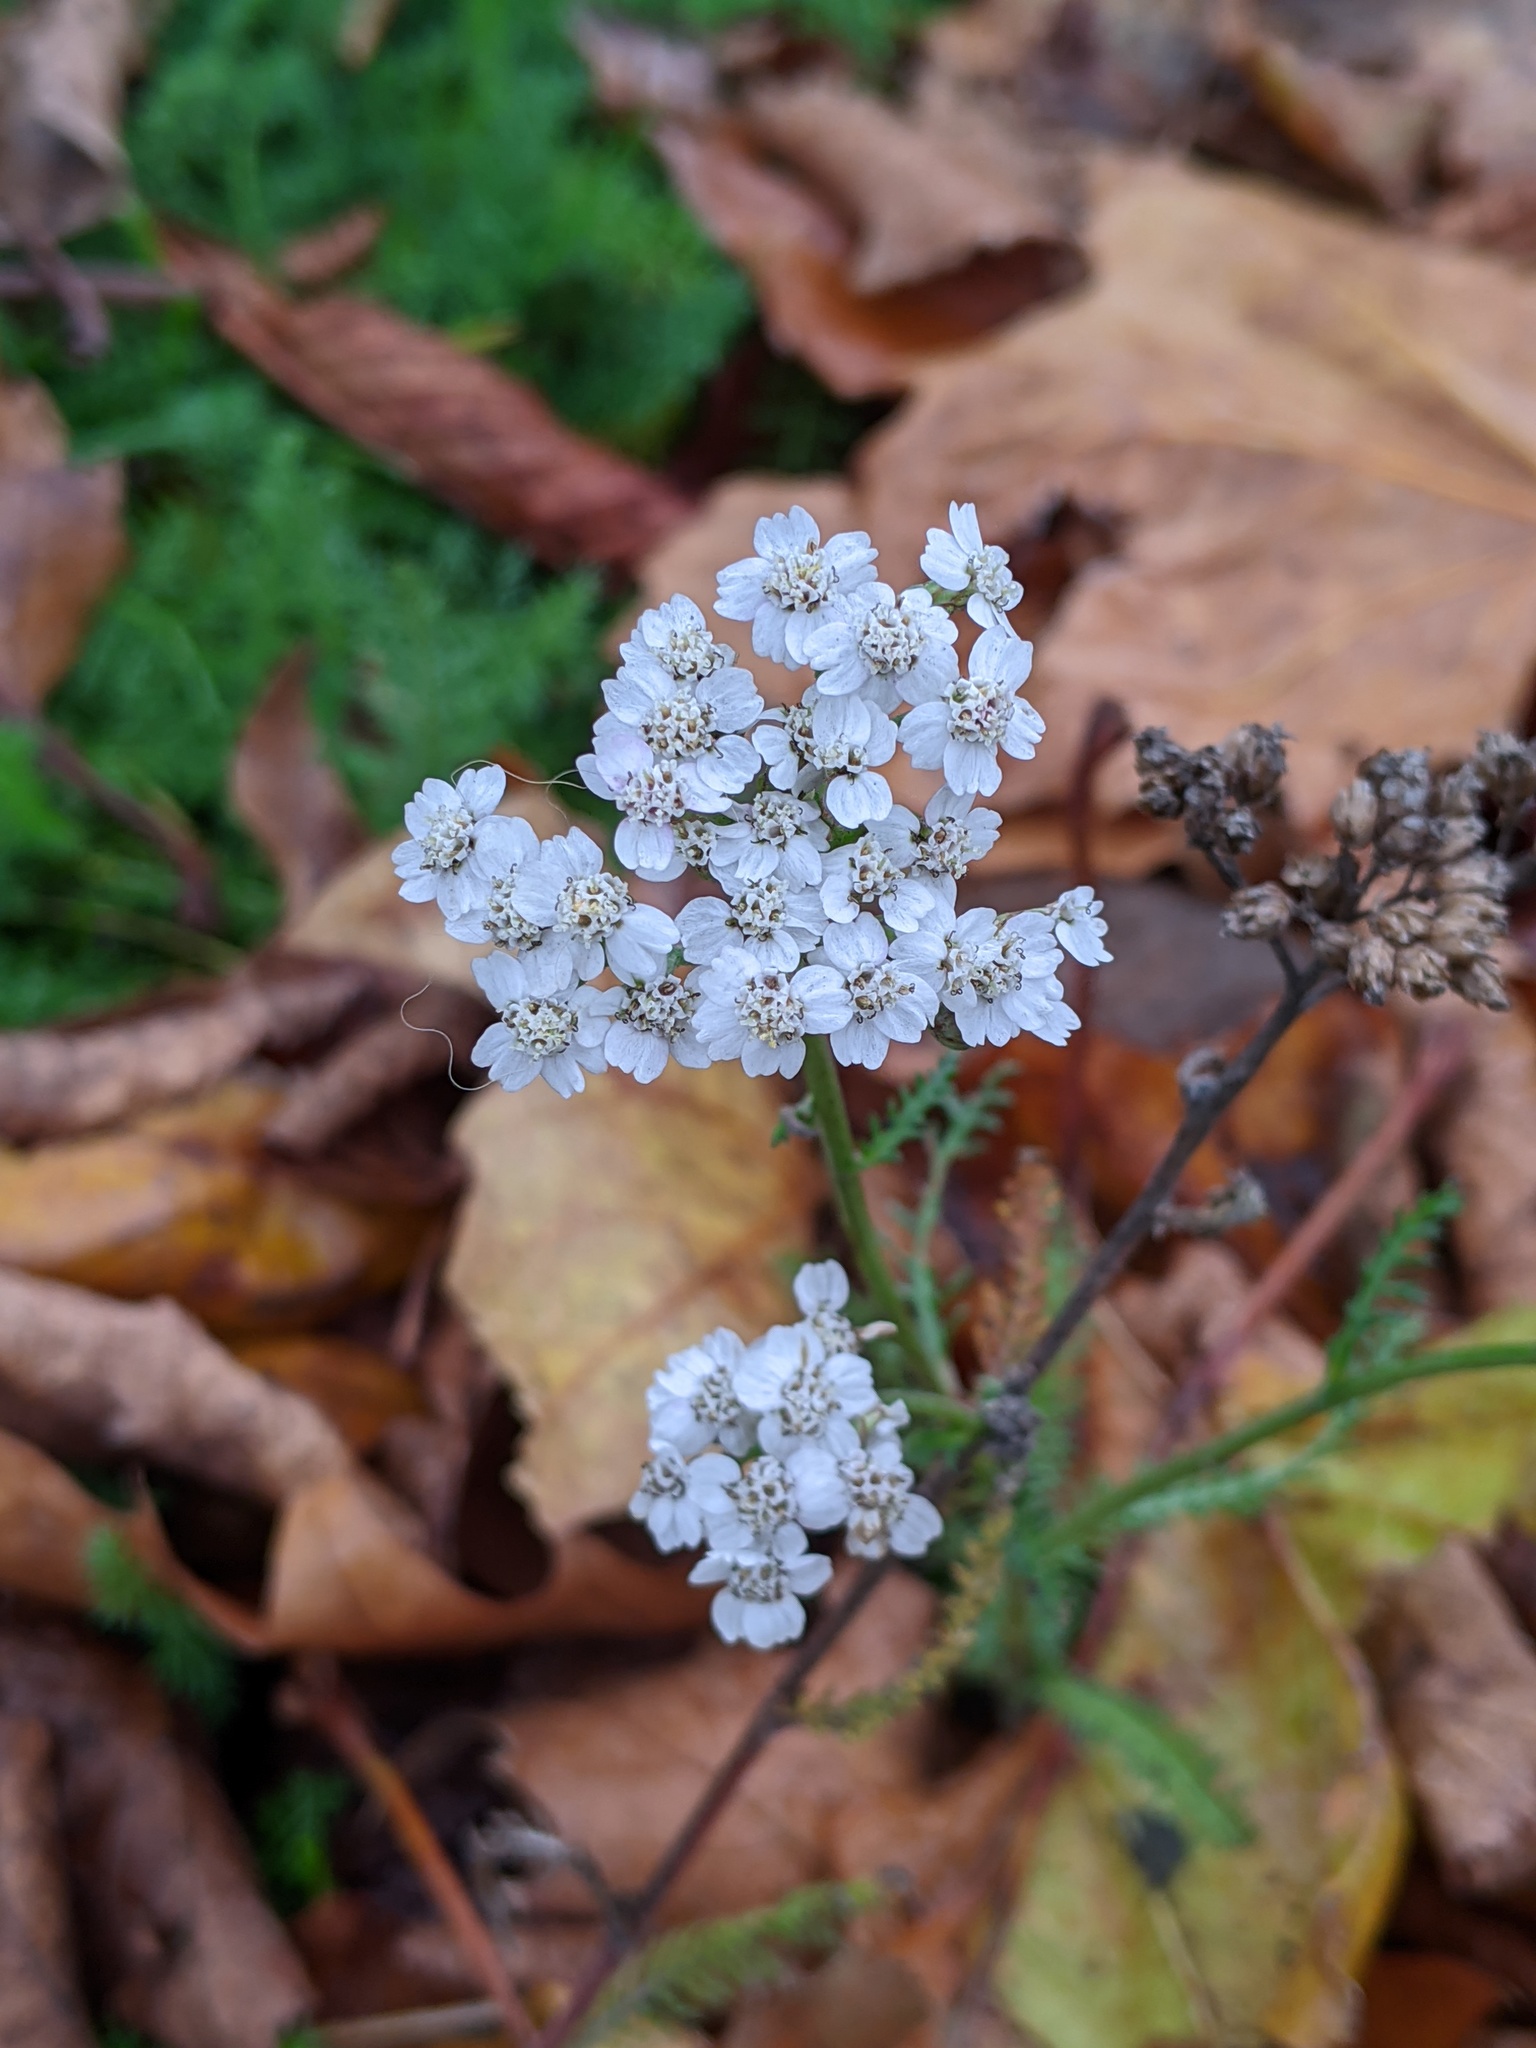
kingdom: Plantae
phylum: Tracheophyta
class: Magnoliopsida
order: Asterales
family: Asteraceae
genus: Achillea
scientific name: Achillea millefolium
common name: Yarrow
